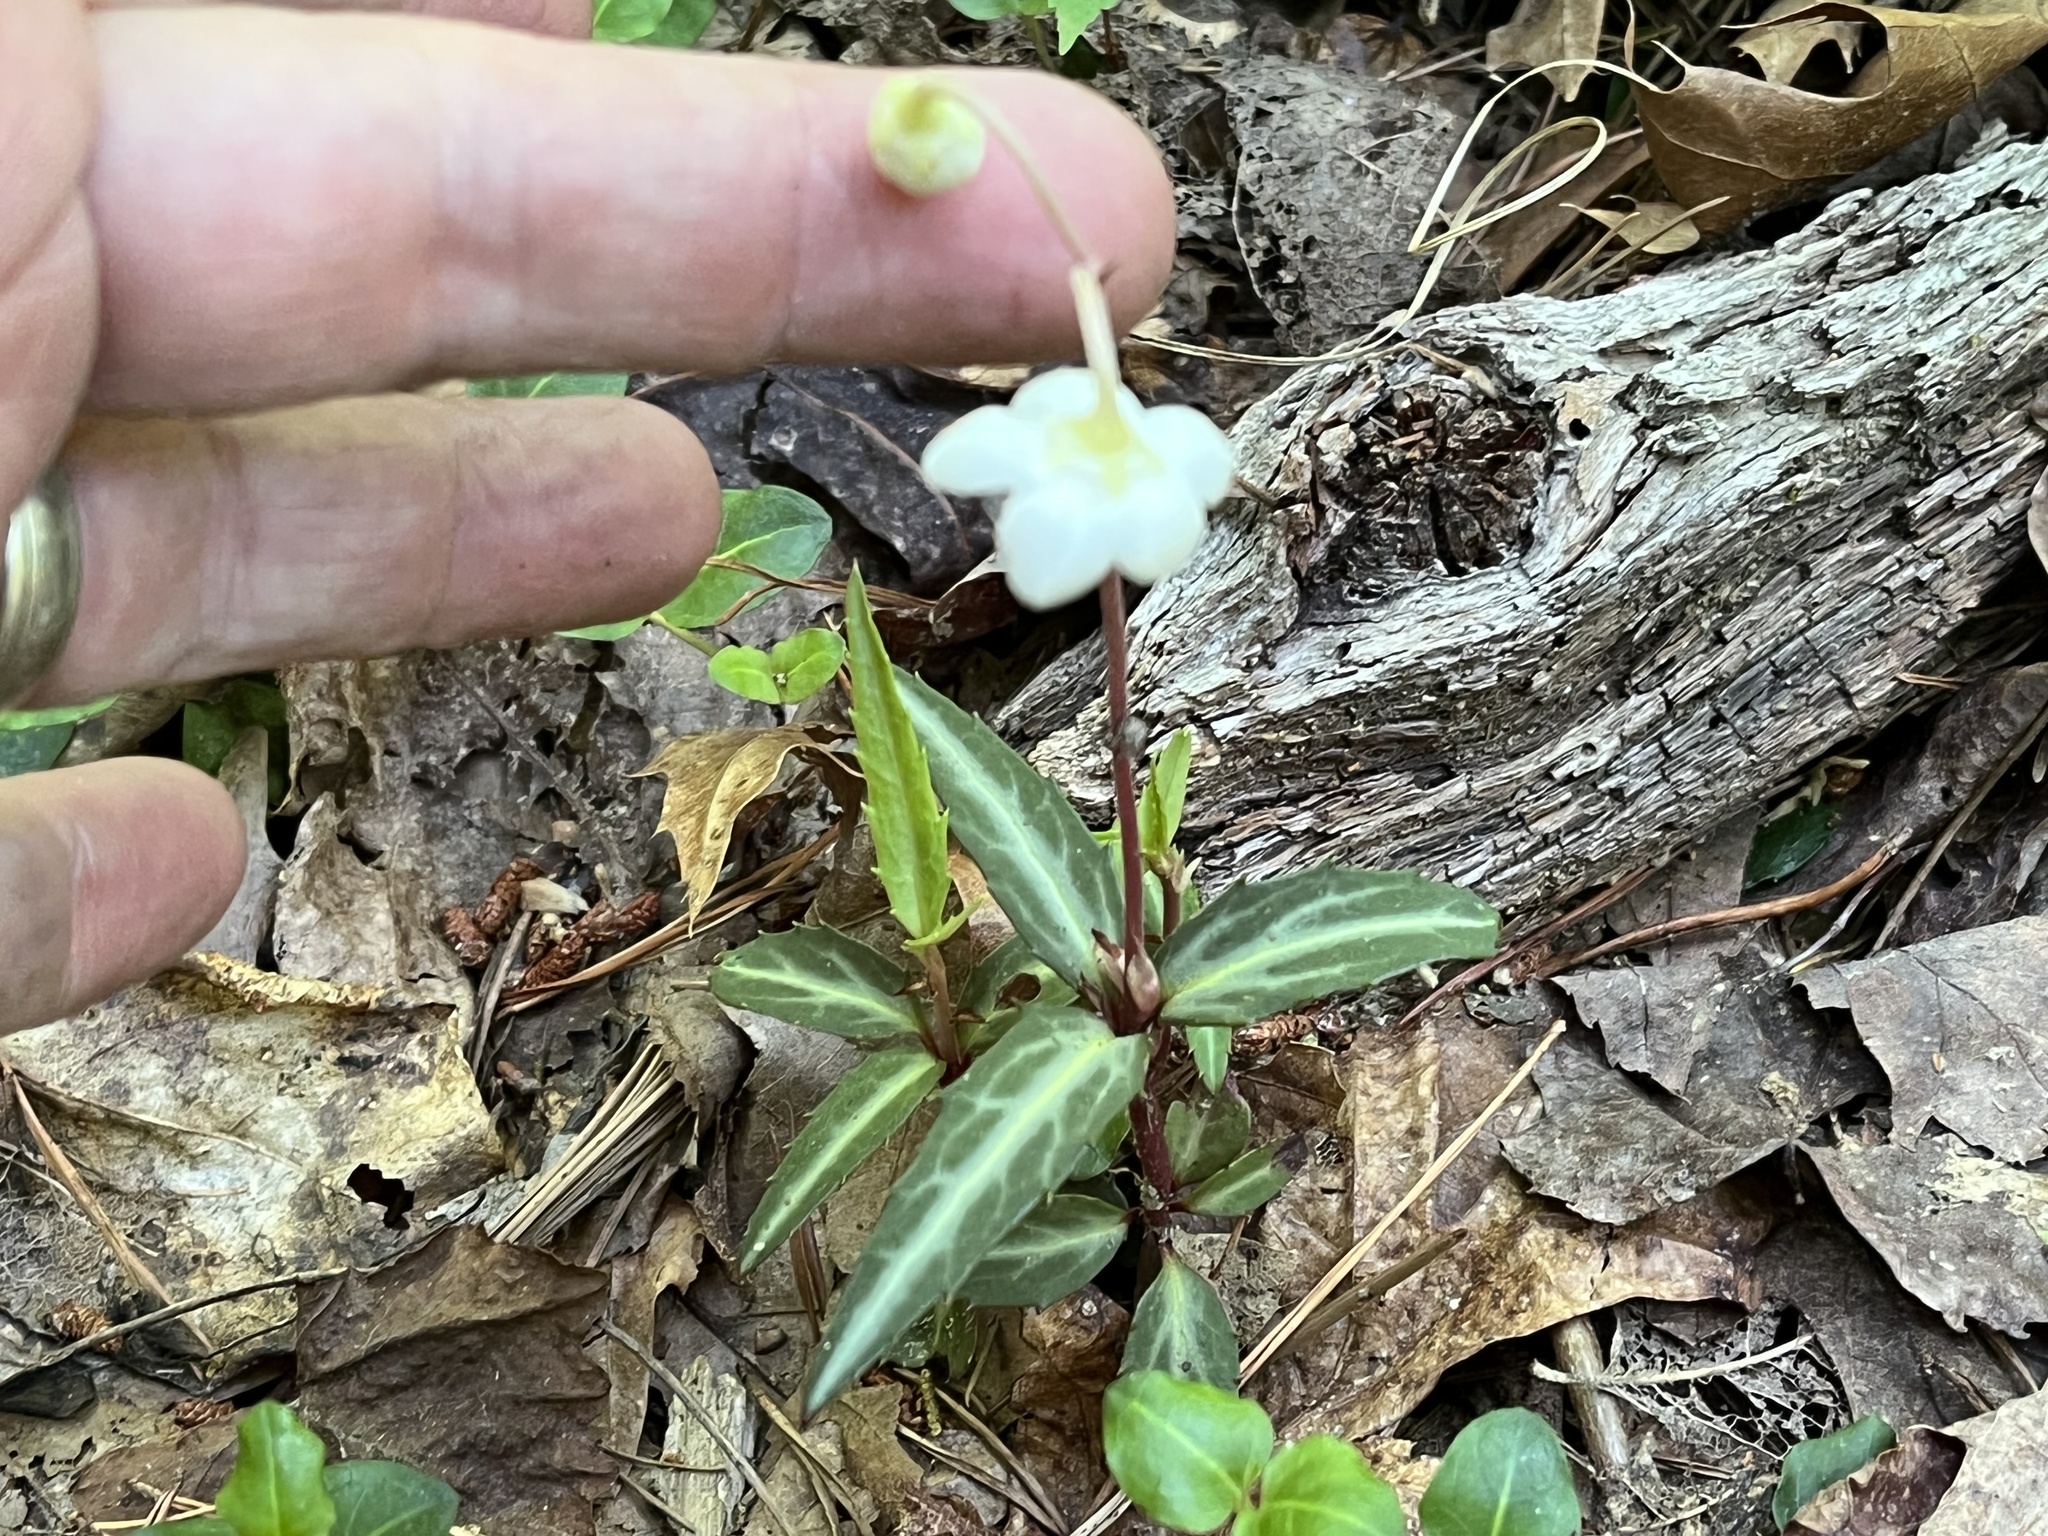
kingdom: Plantae
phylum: Tracheophyta
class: Magnoliopsida
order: Ericales
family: Ericaceae
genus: Chimaphila
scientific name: Chimaphila maculata
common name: Spotted pipsissewa
